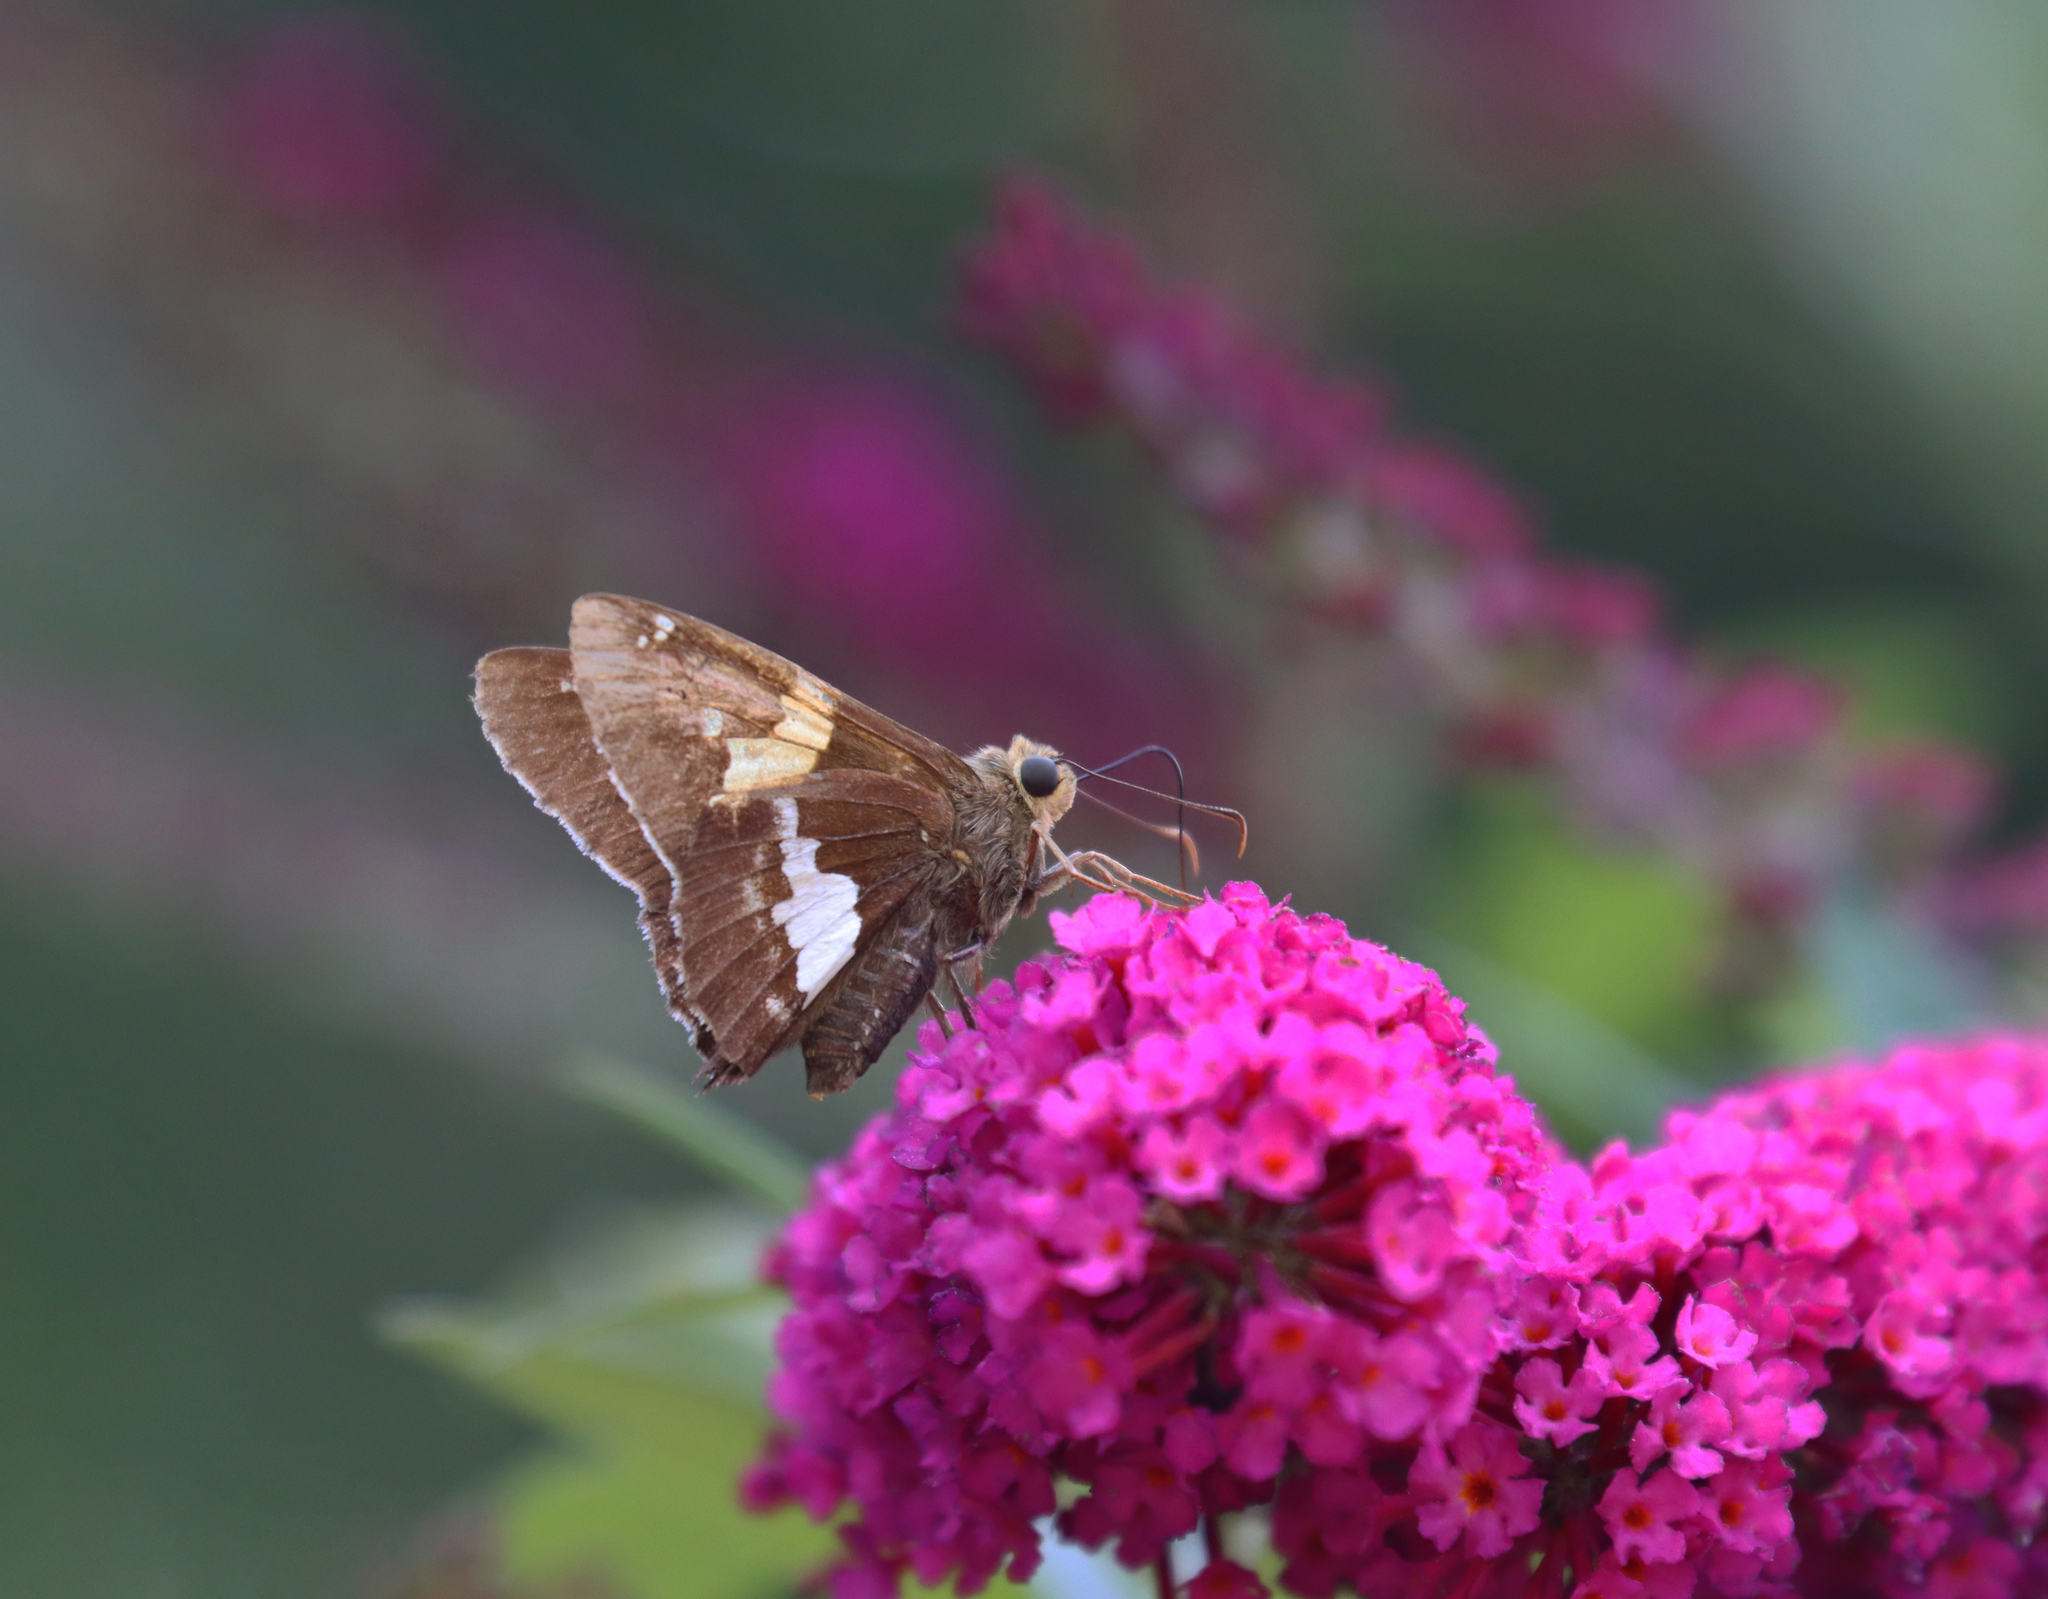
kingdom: Animalia
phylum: Arthropoda
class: Insecta
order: Lepidoptera
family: Hesperiidae
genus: Epargyreus
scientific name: Epargyreus clarus
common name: Silver-spotted skipper
